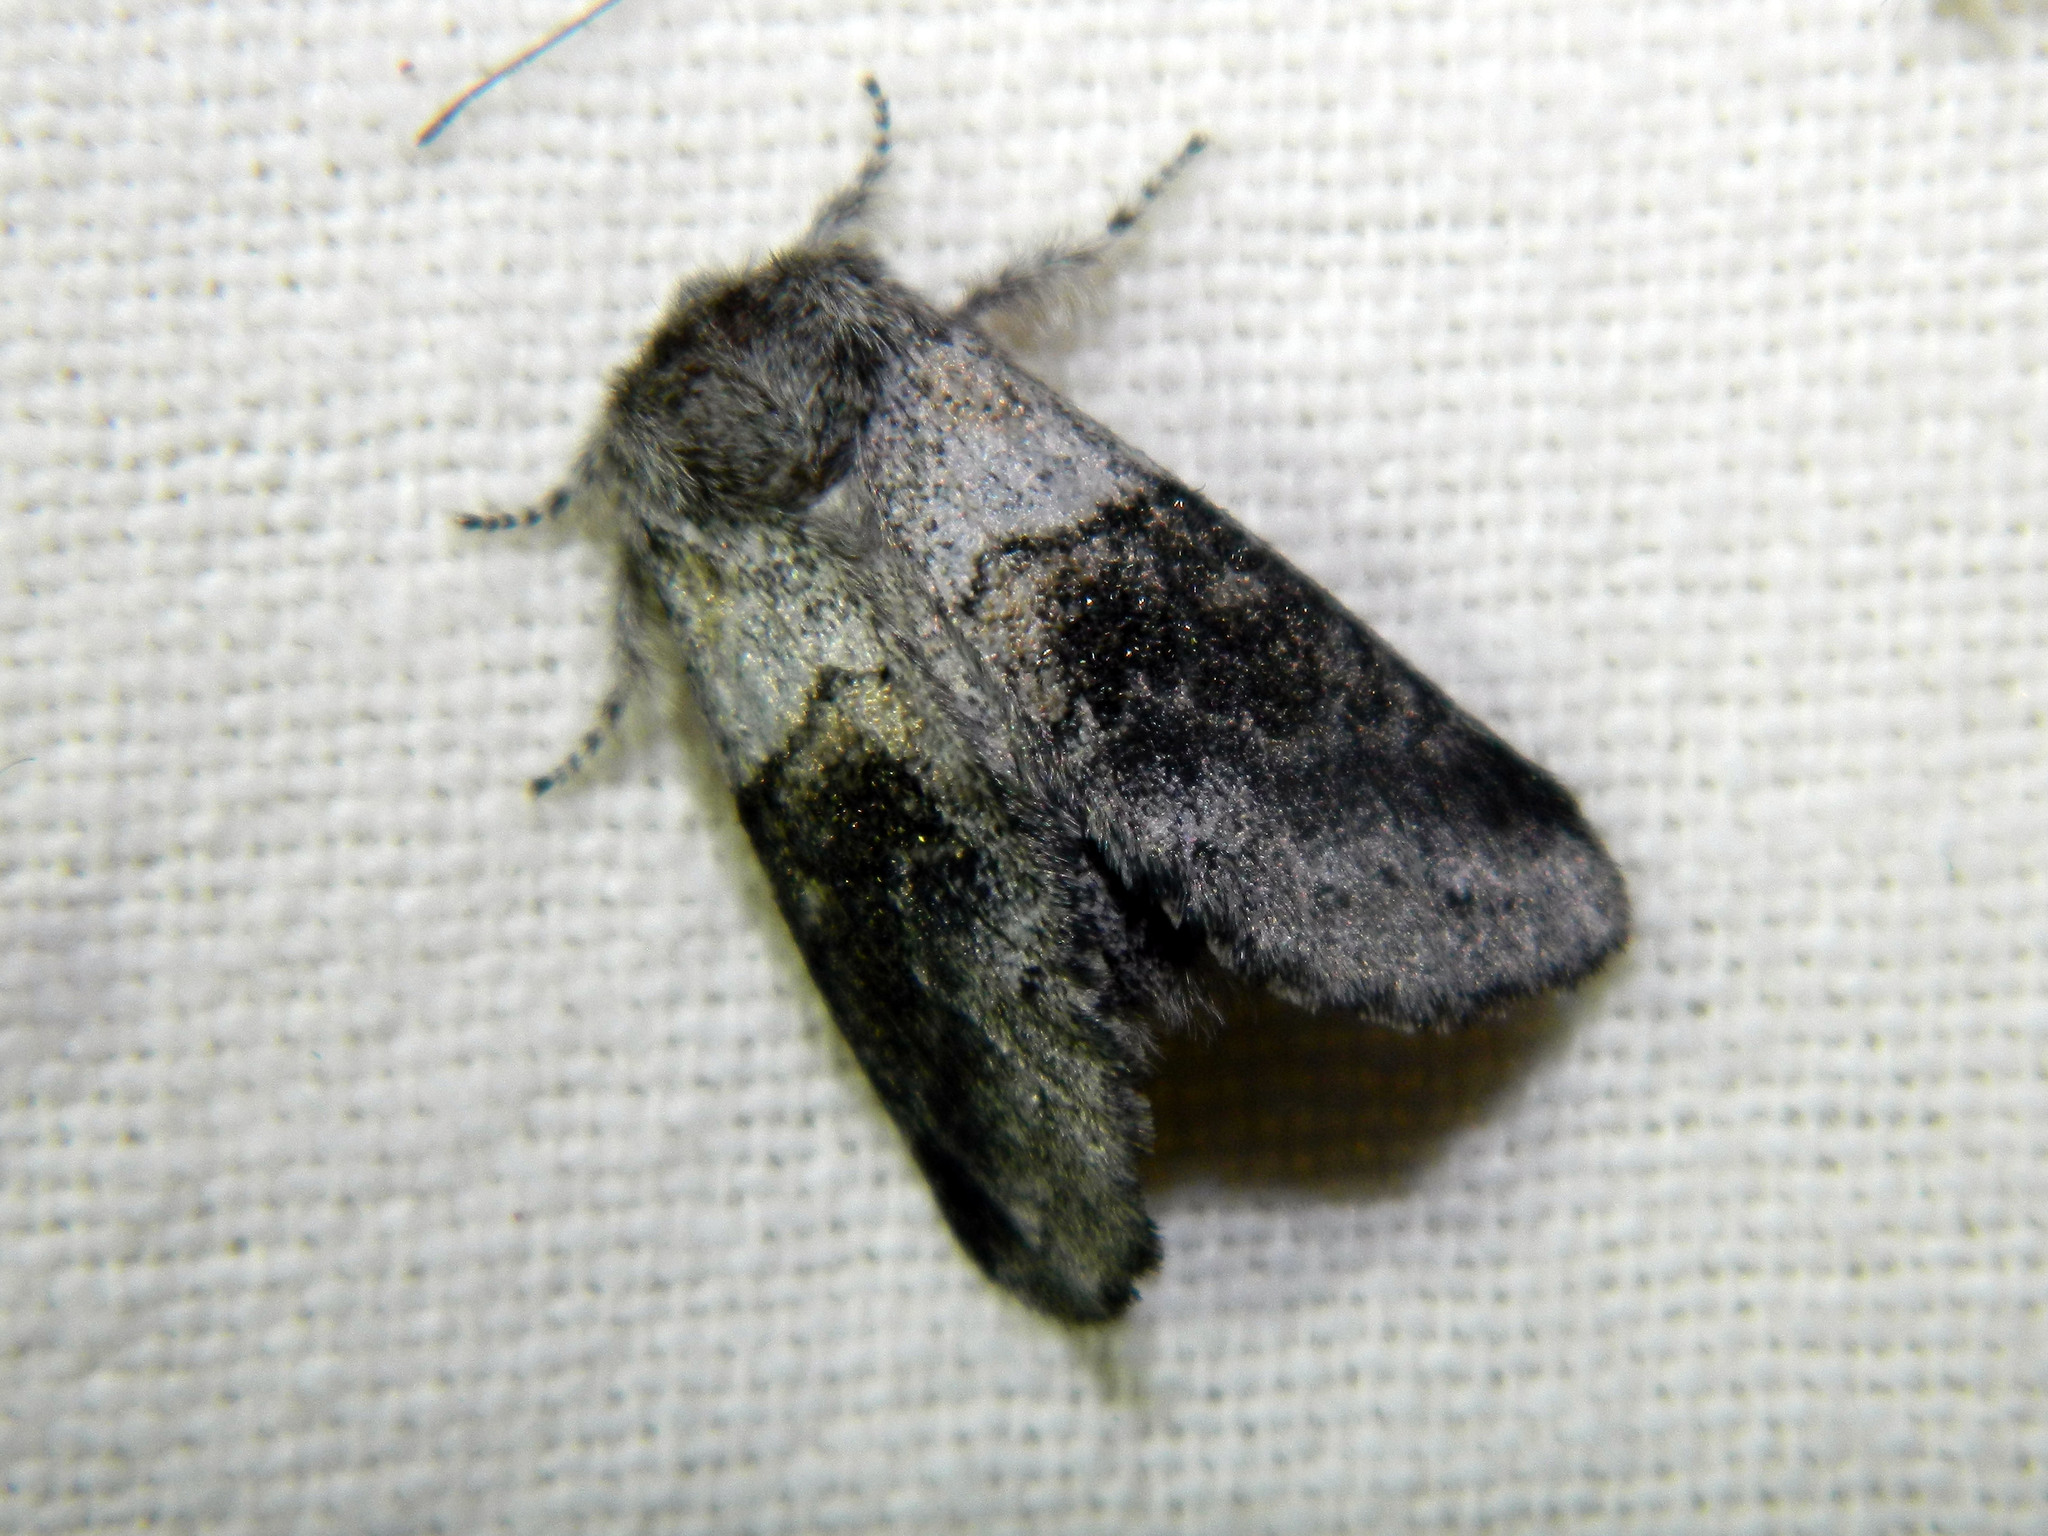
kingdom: Animalia
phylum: Arthropoda
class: Insecta
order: Lepidoptera
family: Notodontidae
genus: Gluphisia
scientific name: Gluphisia septentrionis
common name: Common gluphisia
